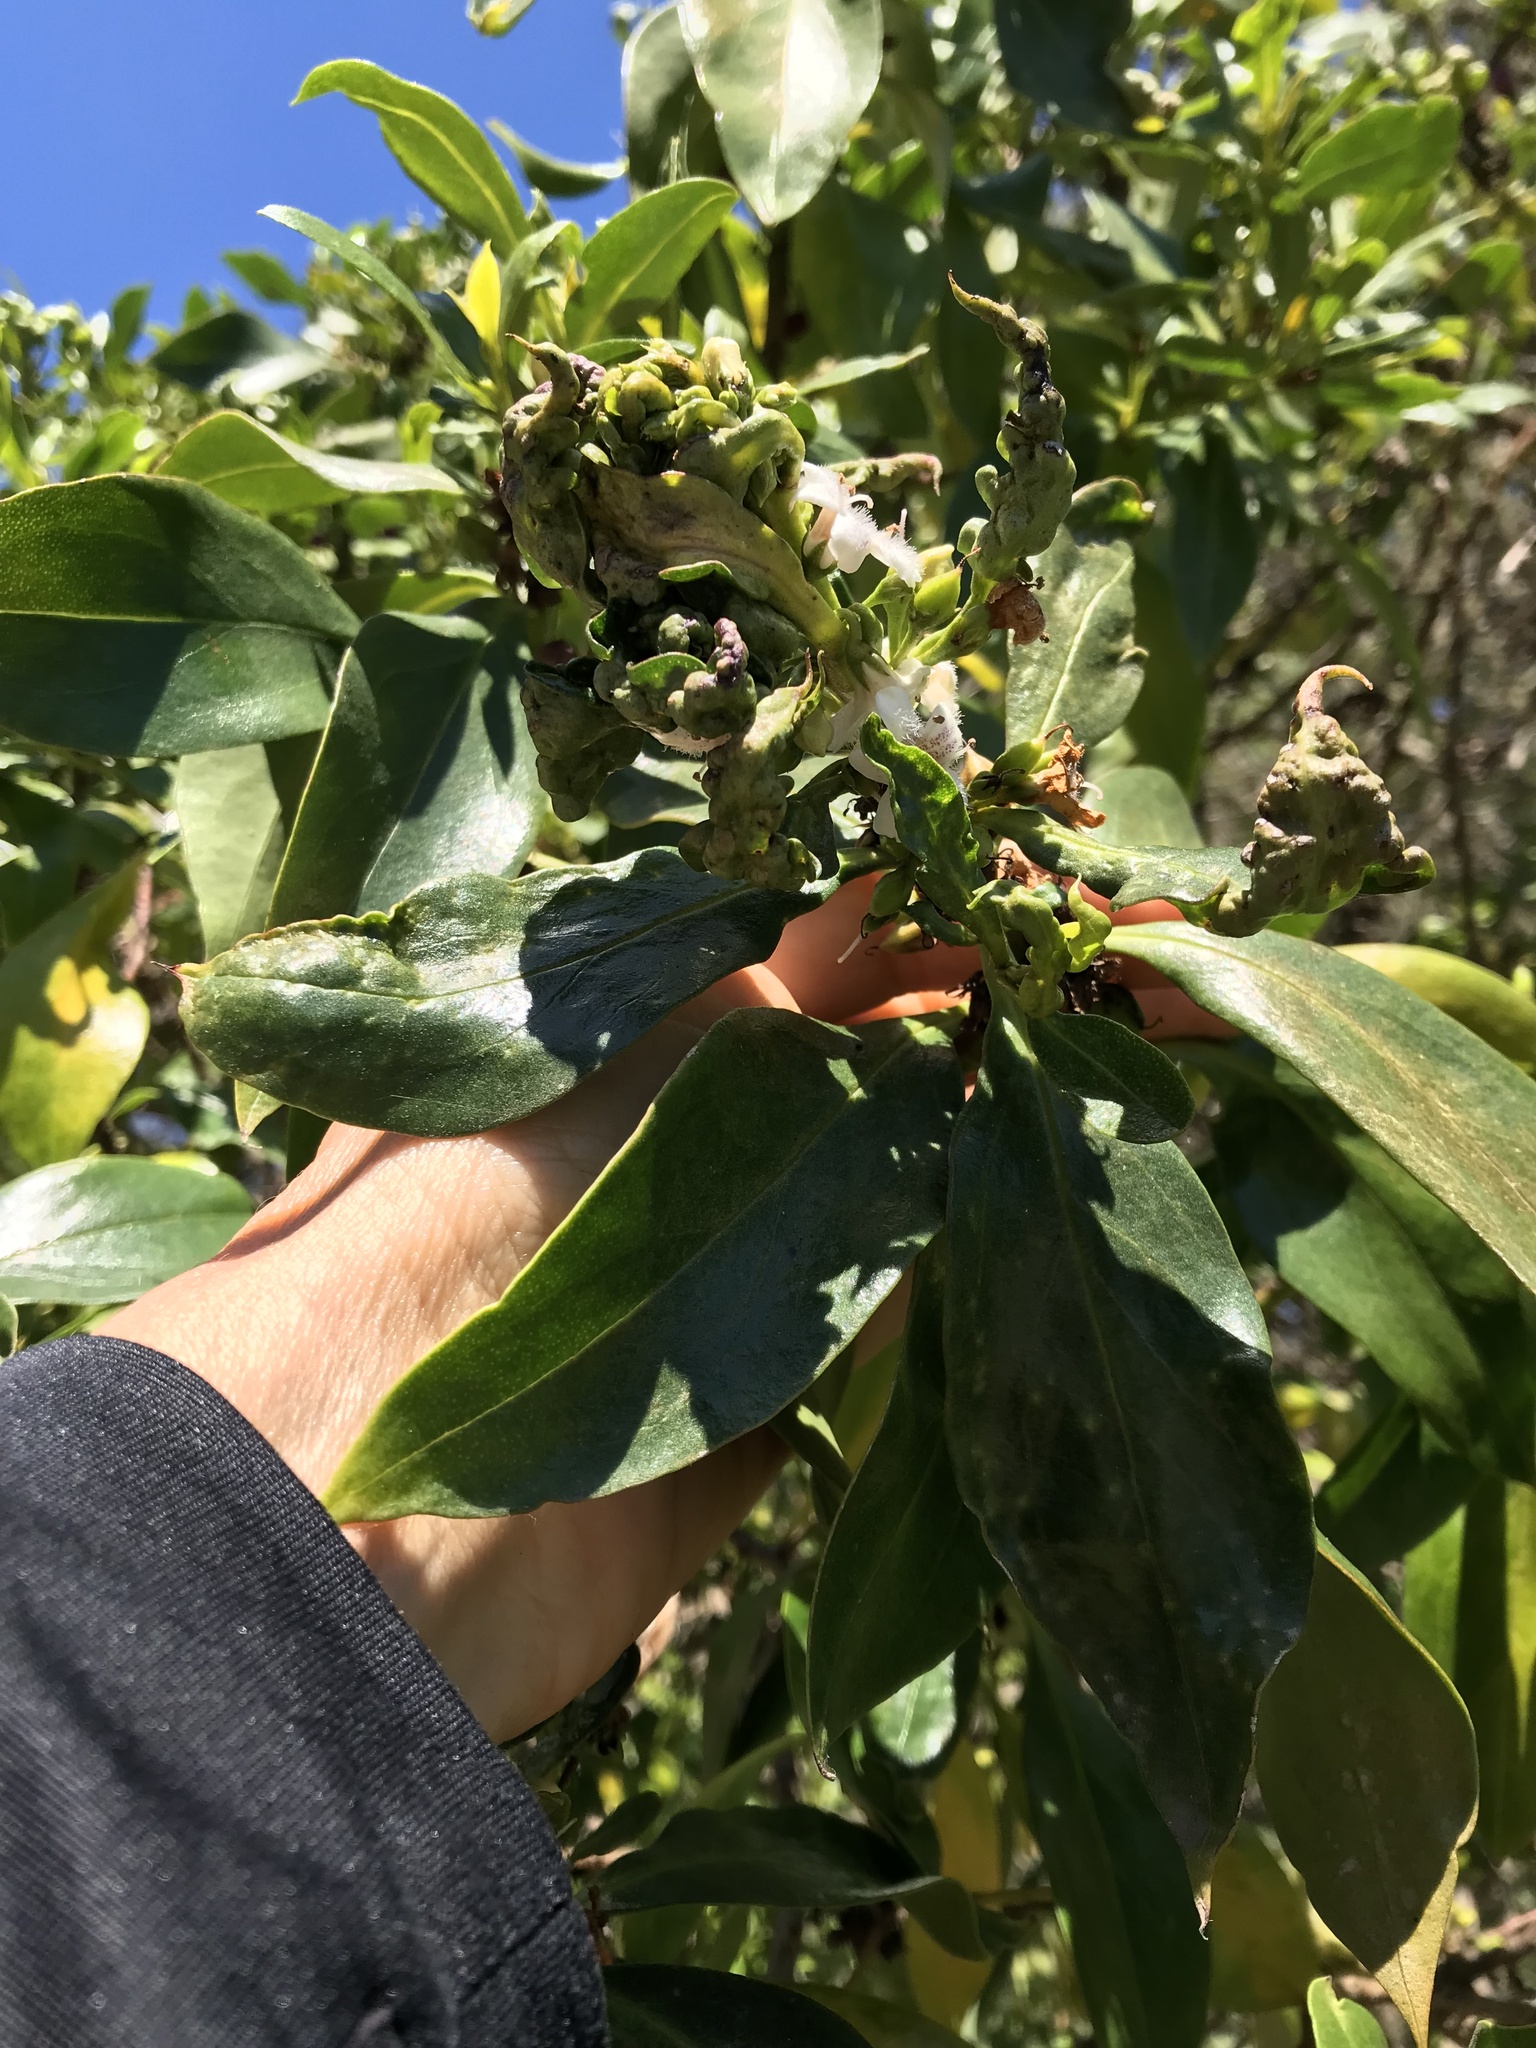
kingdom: Animalia
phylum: Arthropoda
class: Insecta
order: Thysanoptera
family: Phlaeothripidae
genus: Klambothrips
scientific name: Klambothrips myopori
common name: Myoporum thrips
